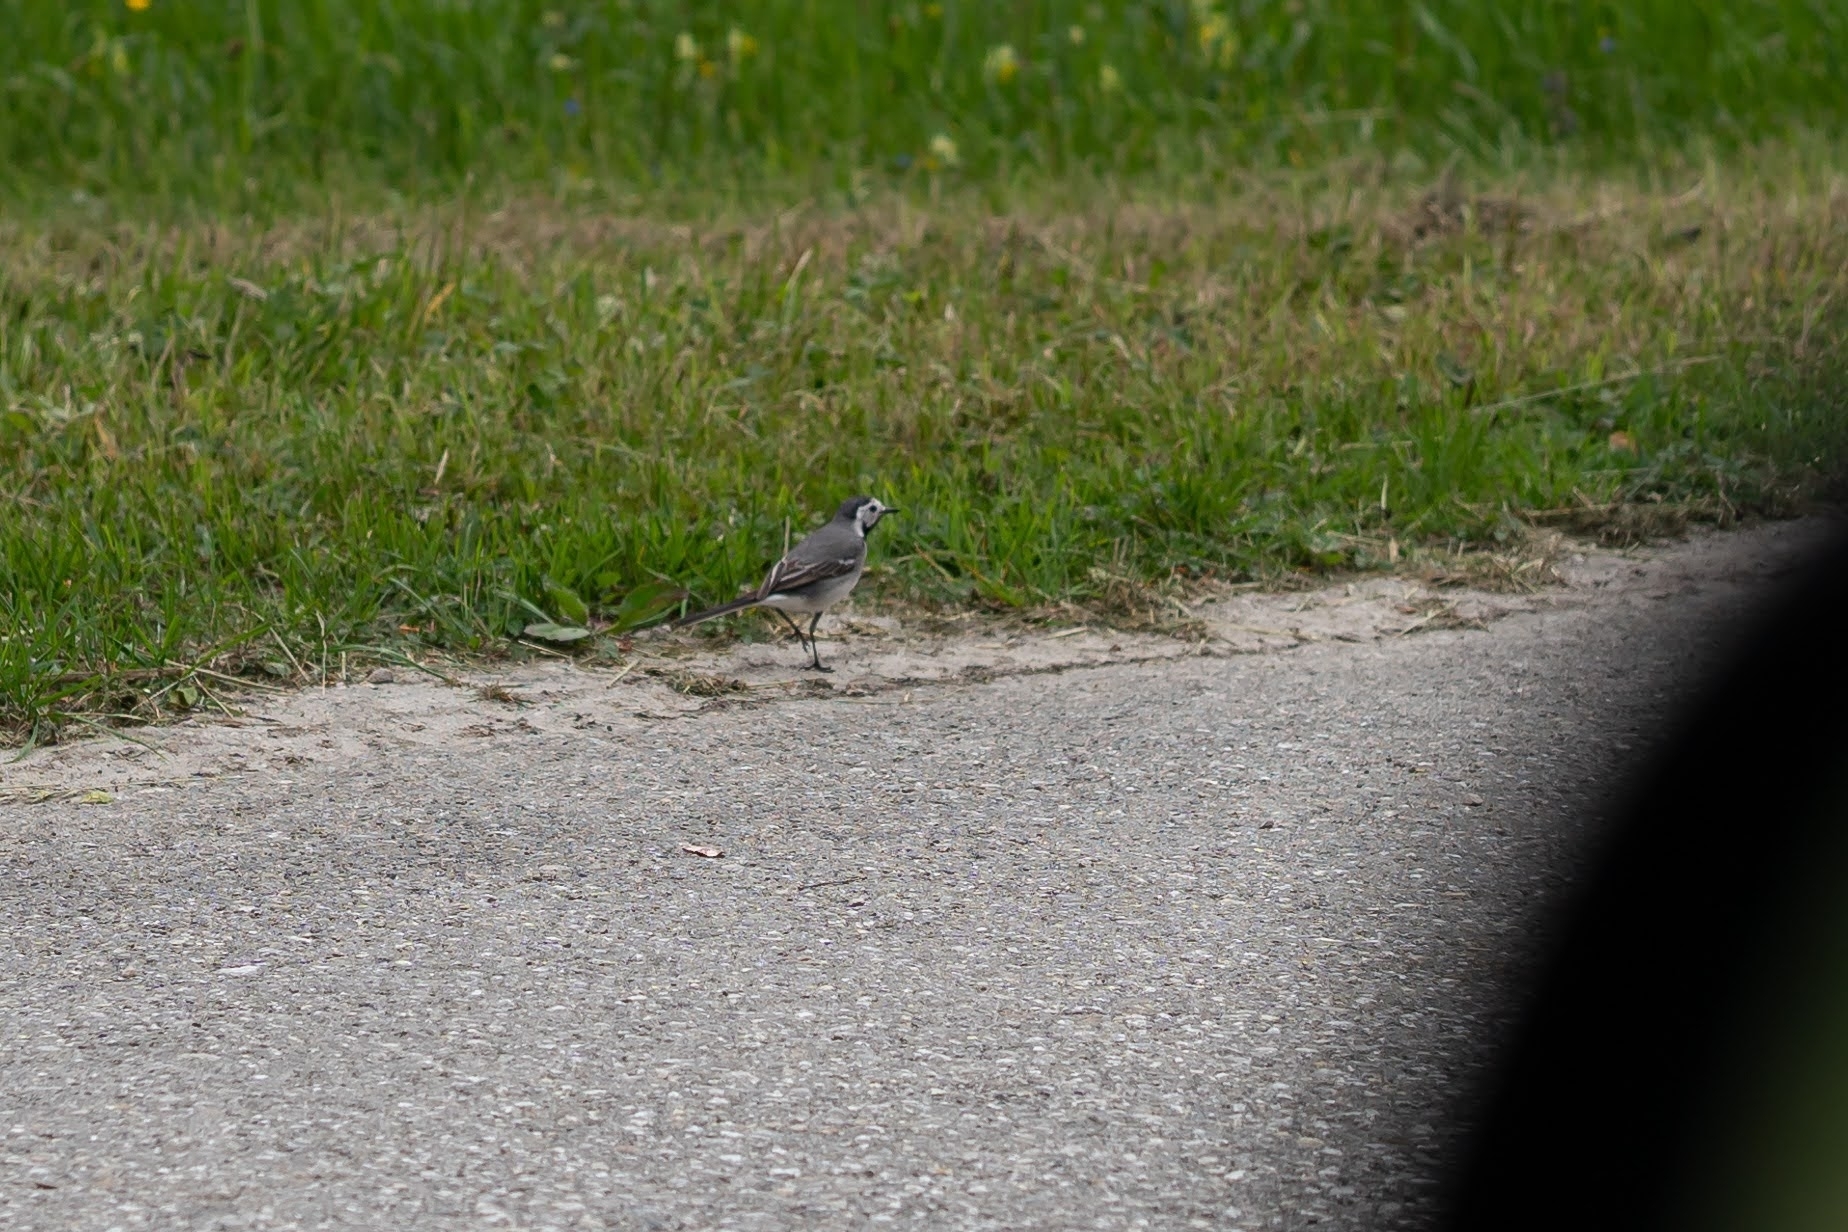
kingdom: Animalia
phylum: Chordata
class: Aves
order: Passeriformes
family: Motacillidae
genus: Motacilla
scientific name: Motacilla alba
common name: White wagtail
